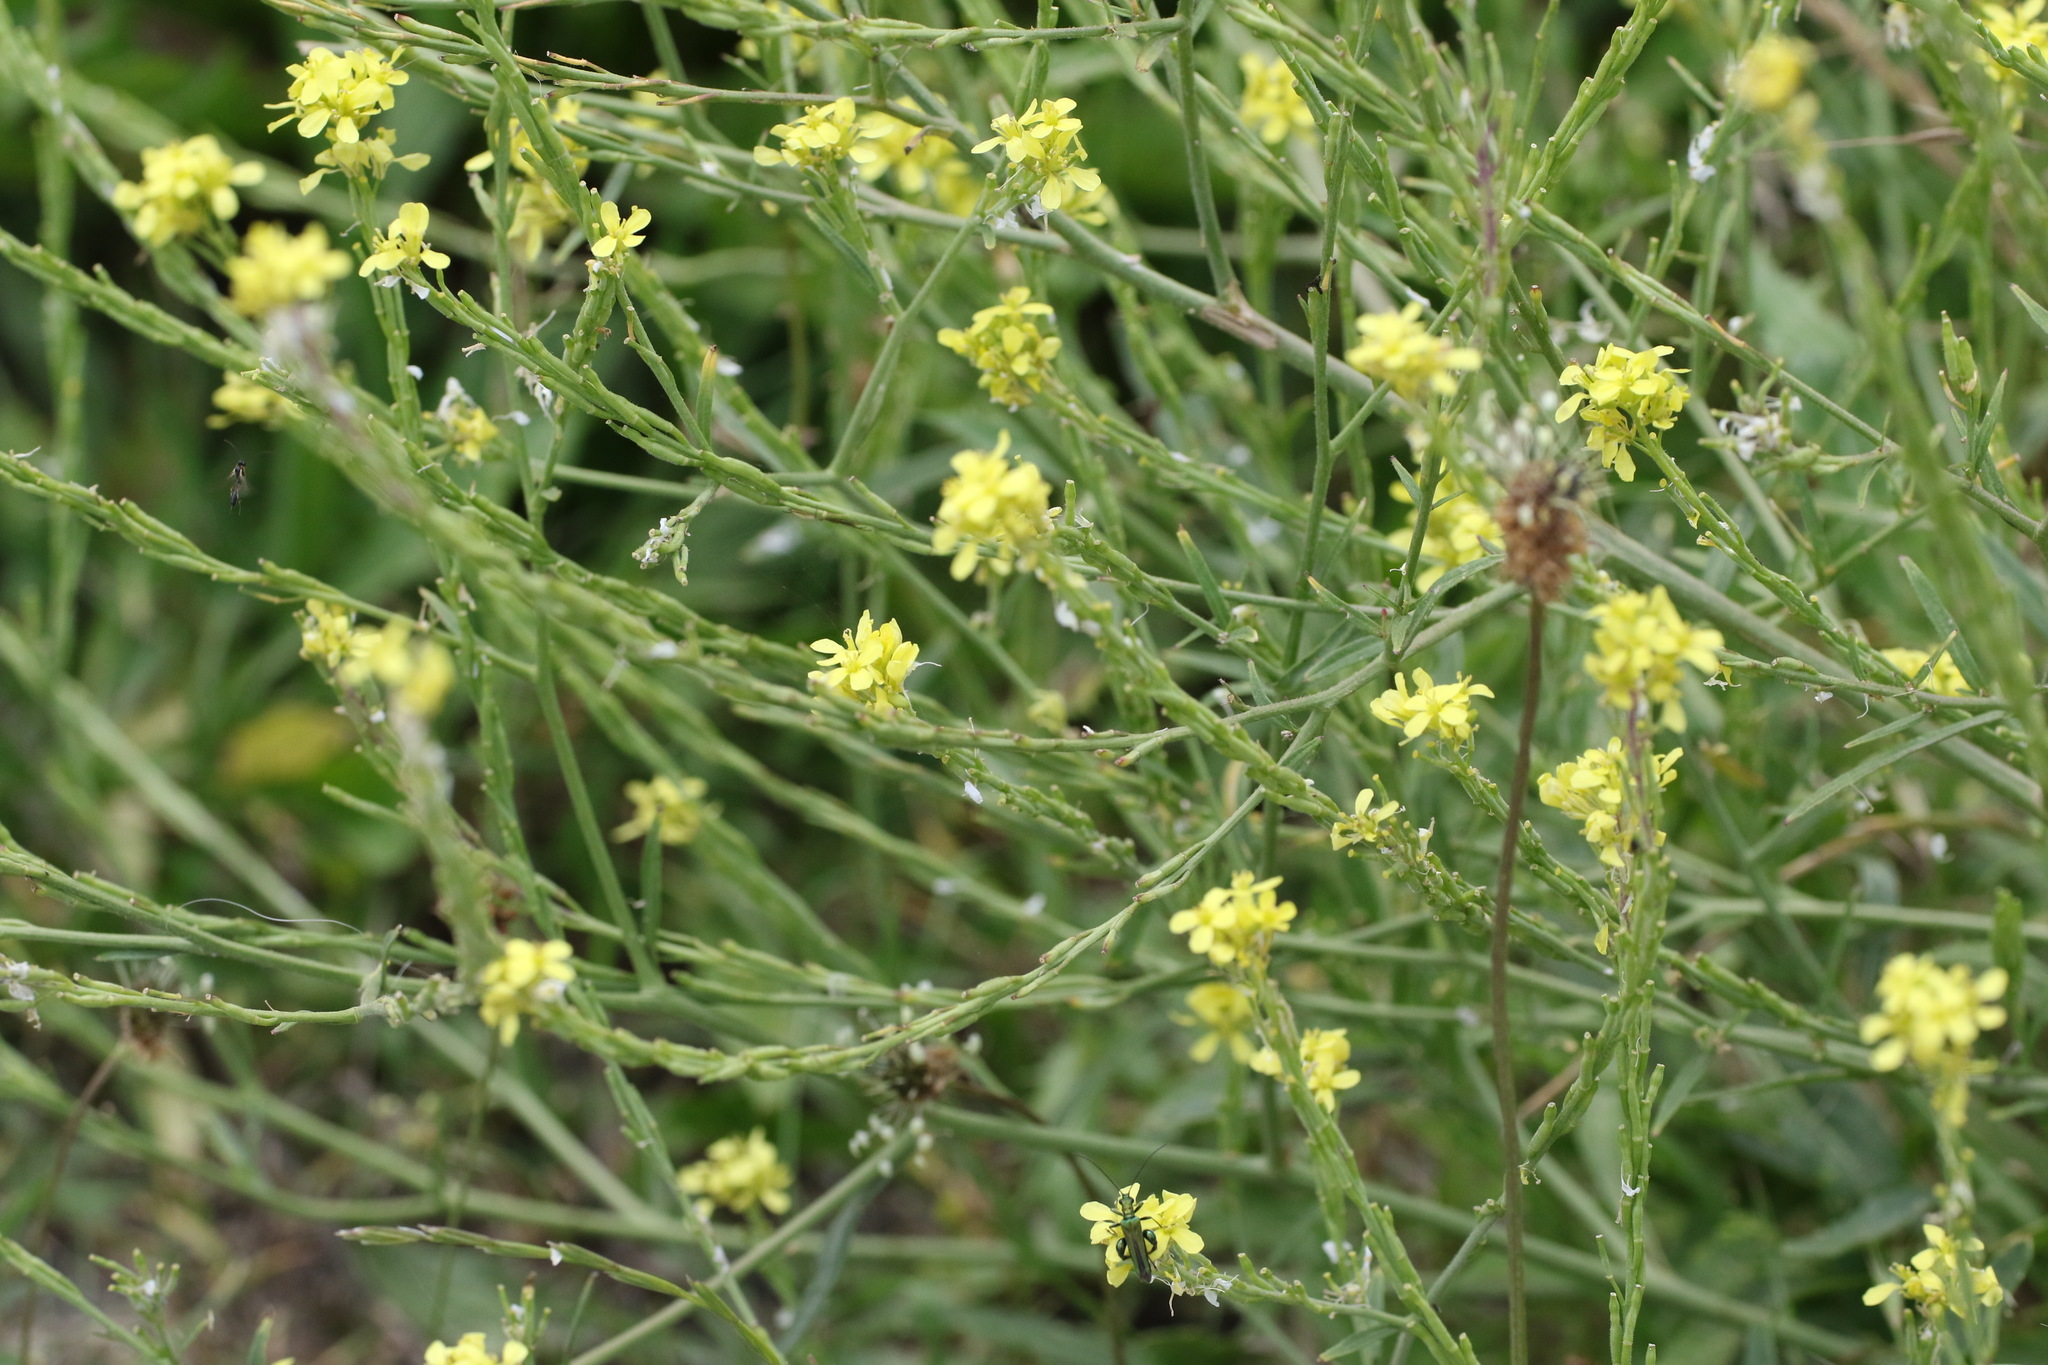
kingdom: Plantae
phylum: Tracheophyta
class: Magnoliopsida
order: Brassicales
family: Brassicaceae
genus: Sisymbrium
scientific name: Sisymbrium officinale
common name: Hedge mustard
